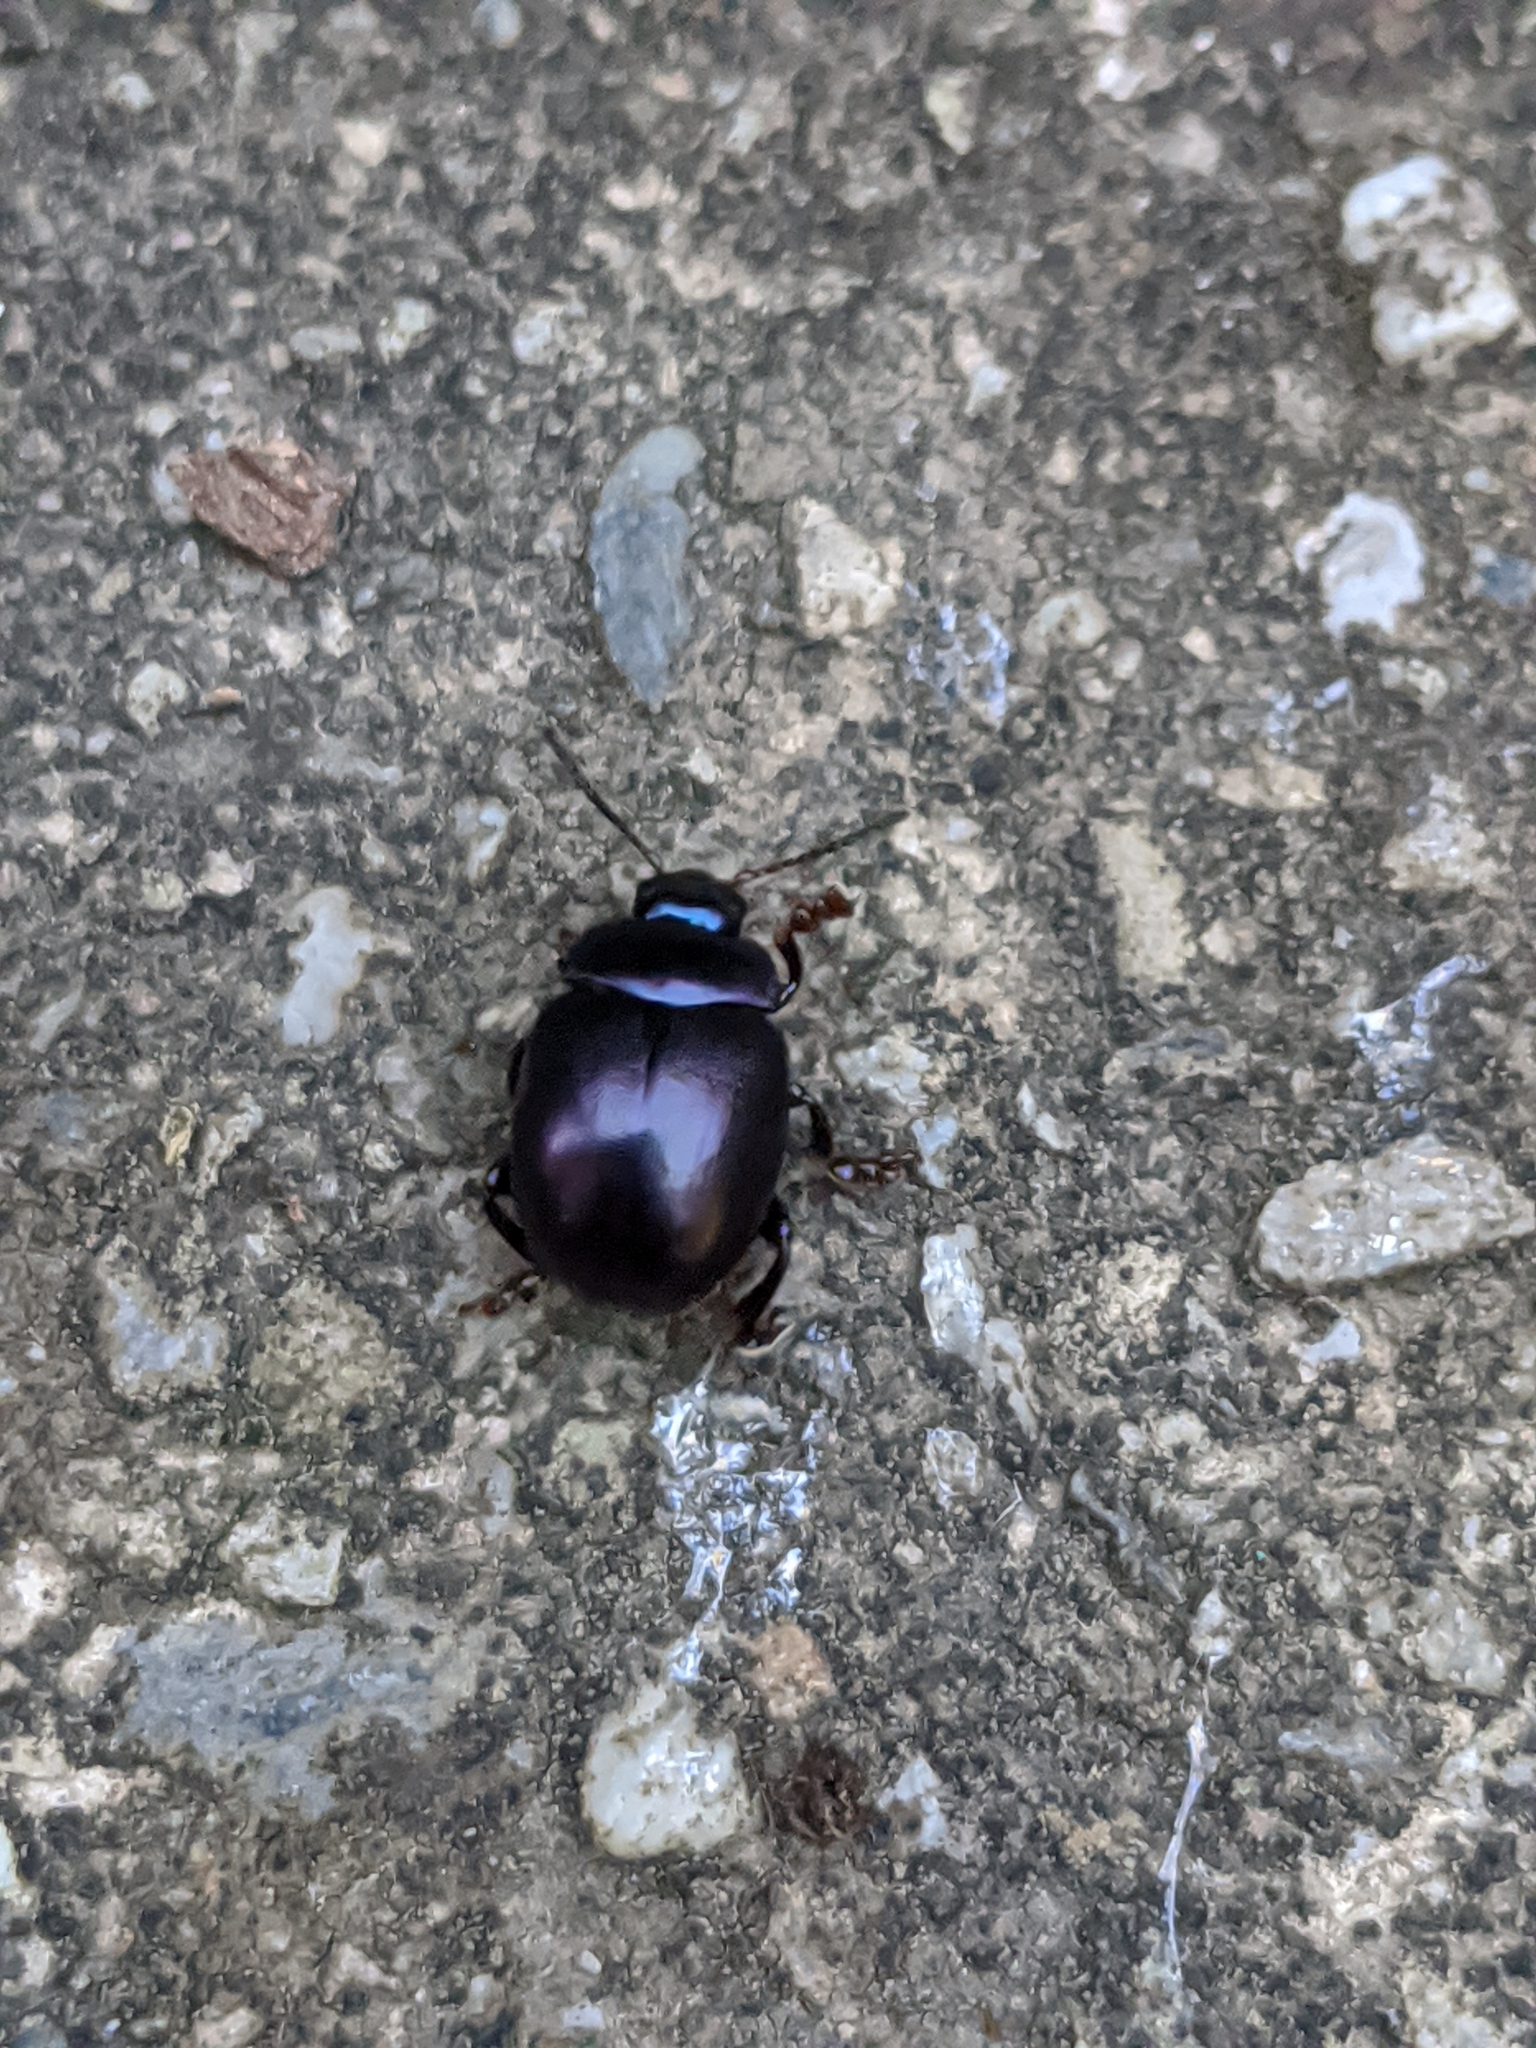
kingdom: Animalia
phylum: Arthropoda
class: Insecta
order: Coleoptera
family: Chrysomelidae
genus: Chrysolina
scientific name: Chrysolina sturmi
